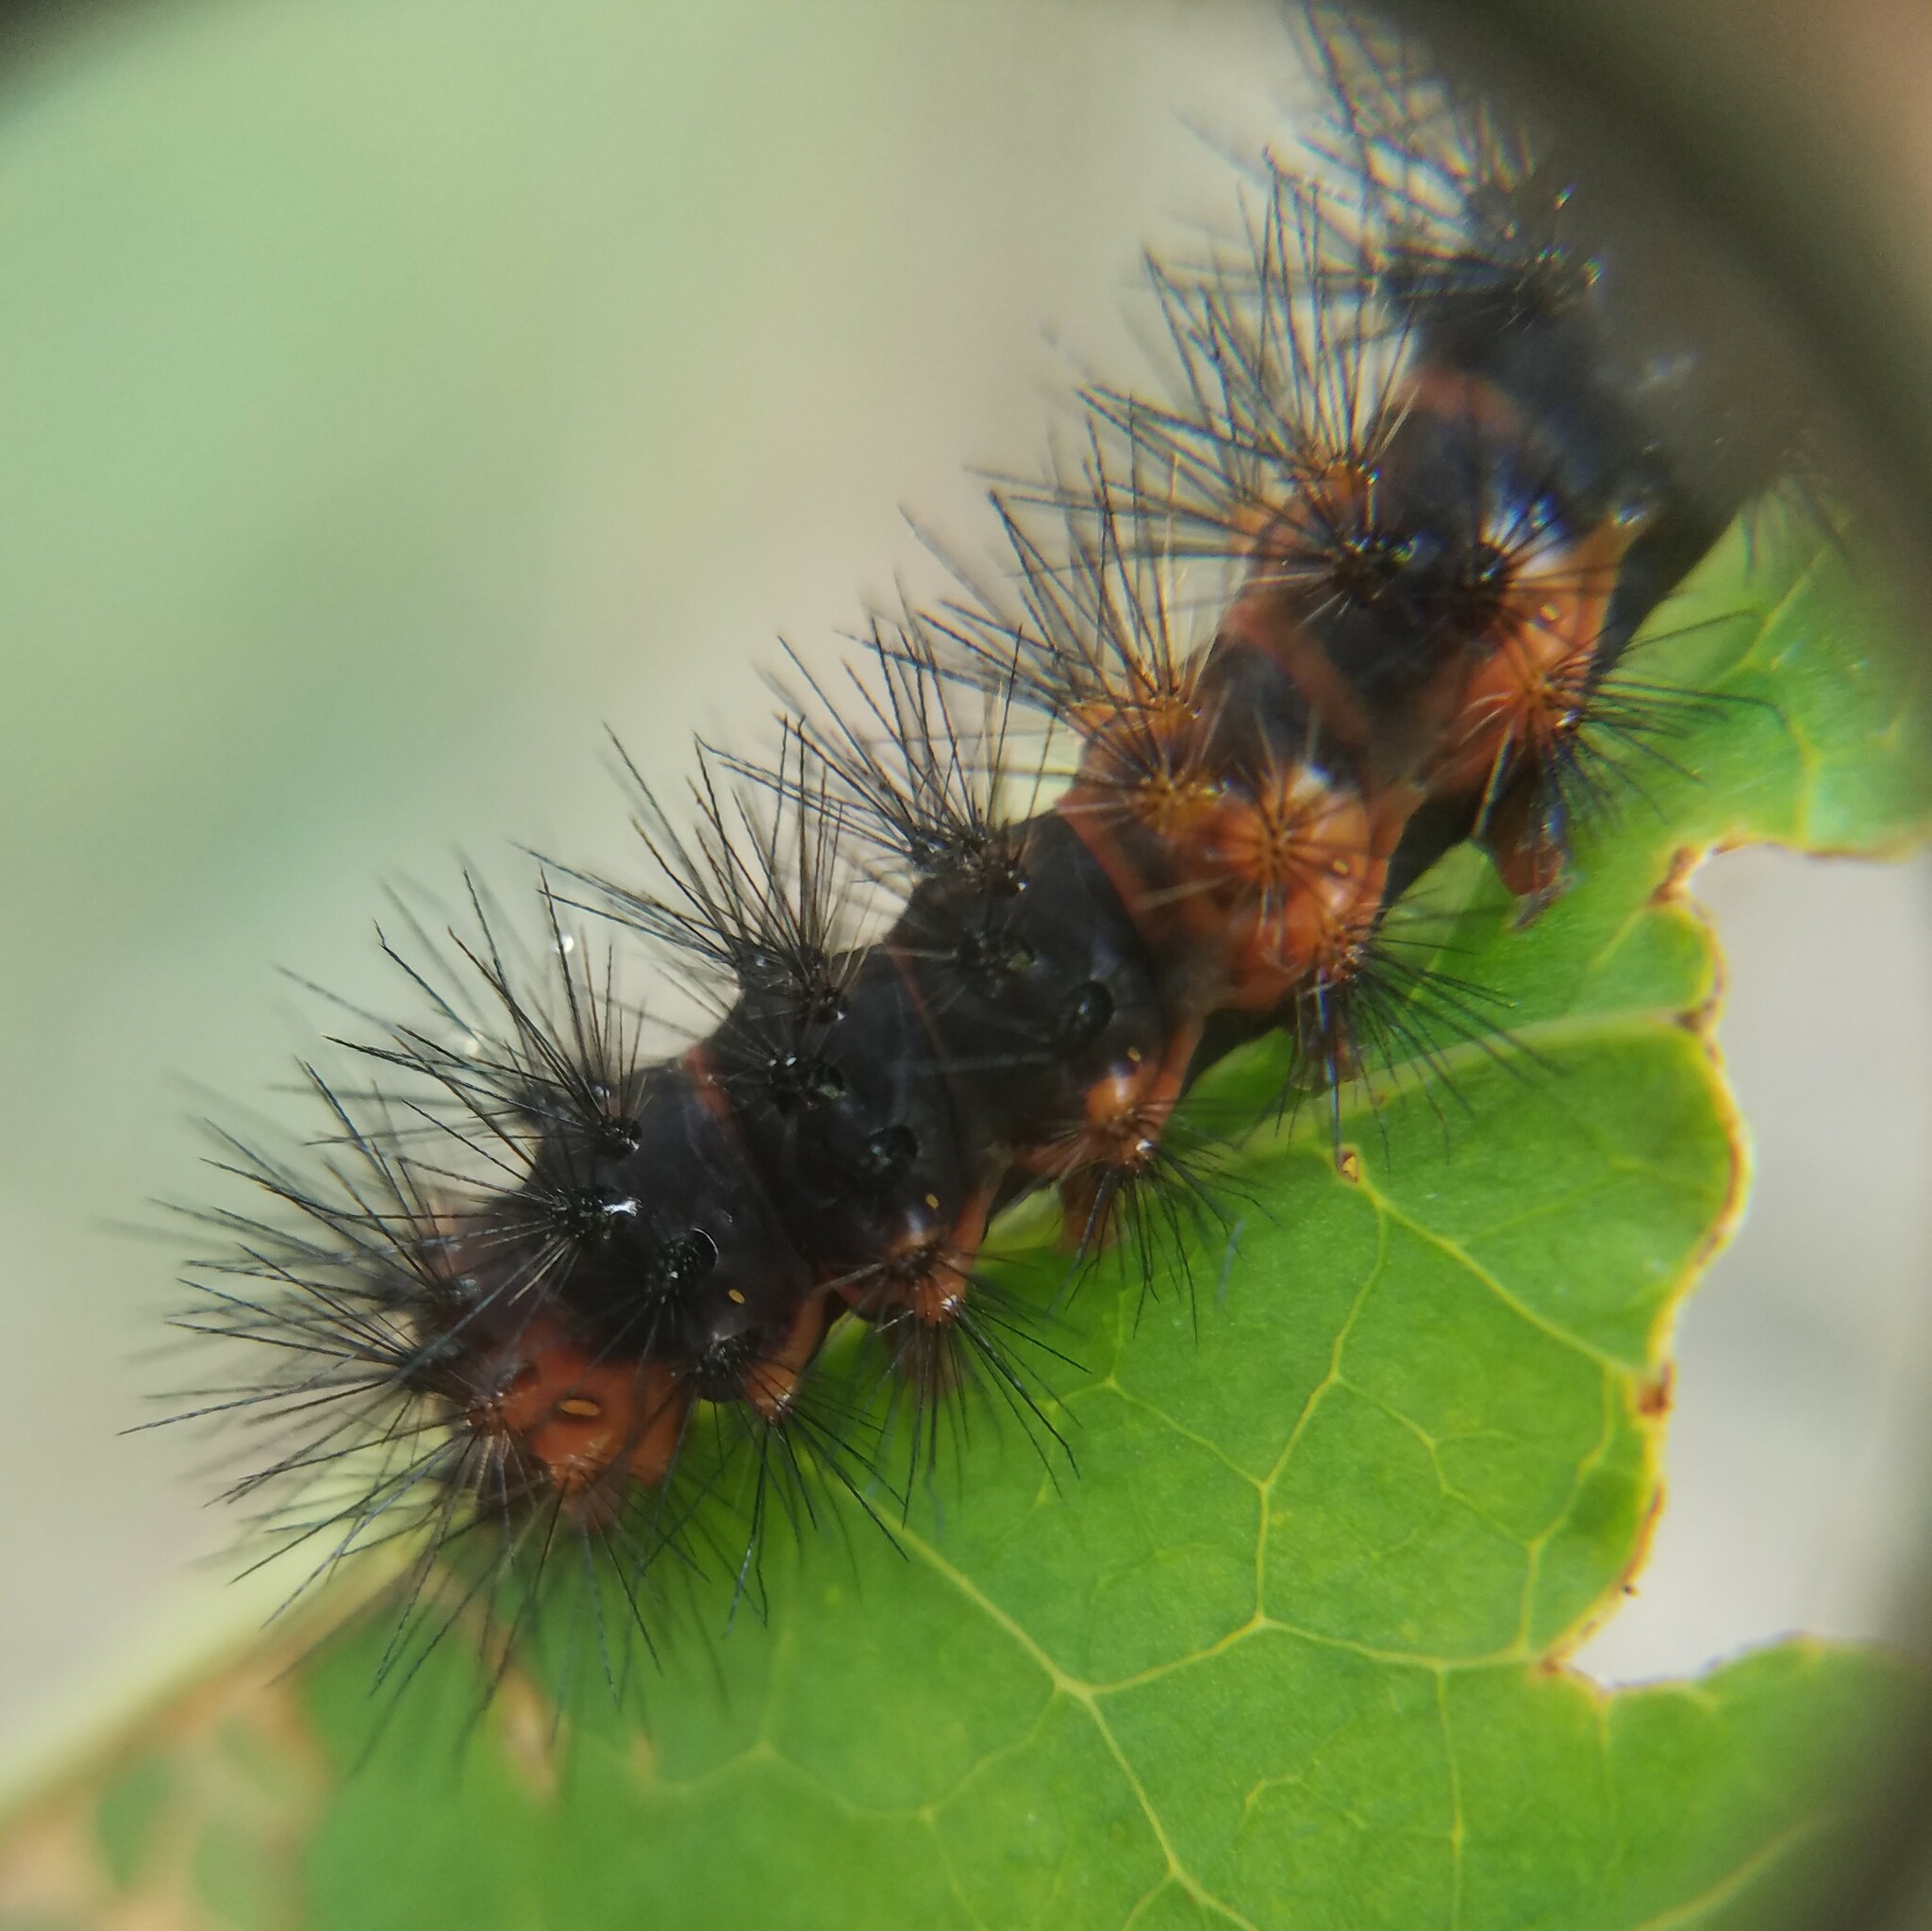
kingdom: Animalia
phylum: Arthropoda
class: Insecta
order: Lepidoptera
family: Erebidae
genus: Hypercompe
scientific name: Hypercompe scribonia
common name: Giant leopard moth
